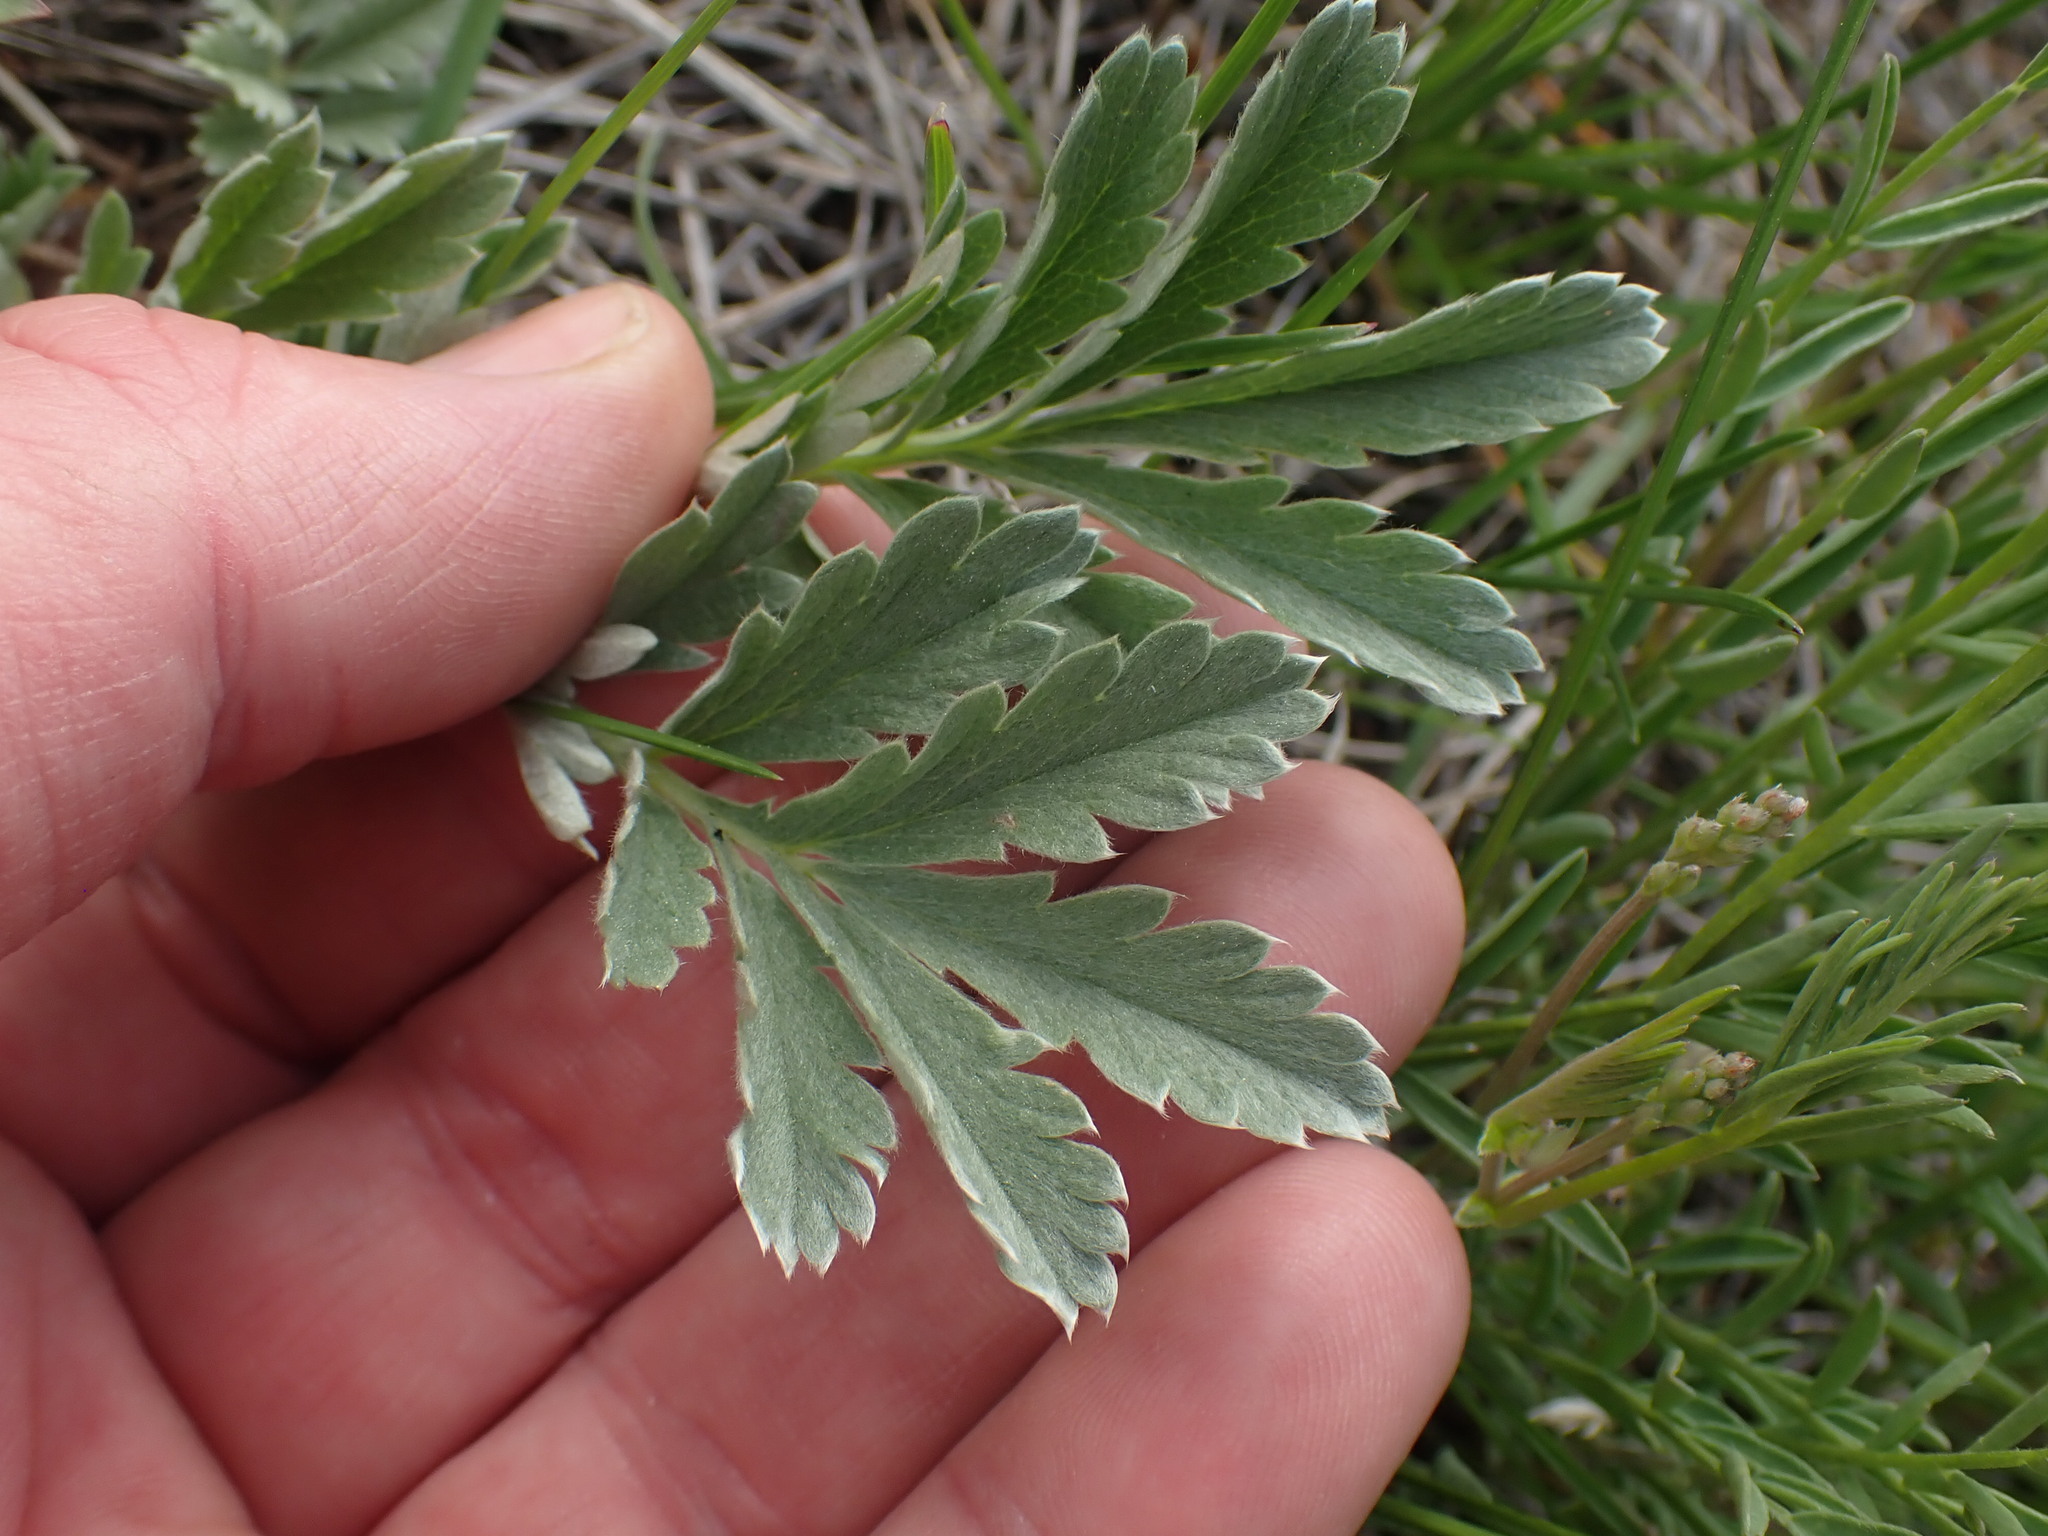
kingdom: Plantae
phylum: Tracheophyta
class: Magnoliopsida
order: Rosales
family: Rosaceae
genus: Potentilla
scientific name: Potentilla hippiana
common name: Woolly cinquefoil
